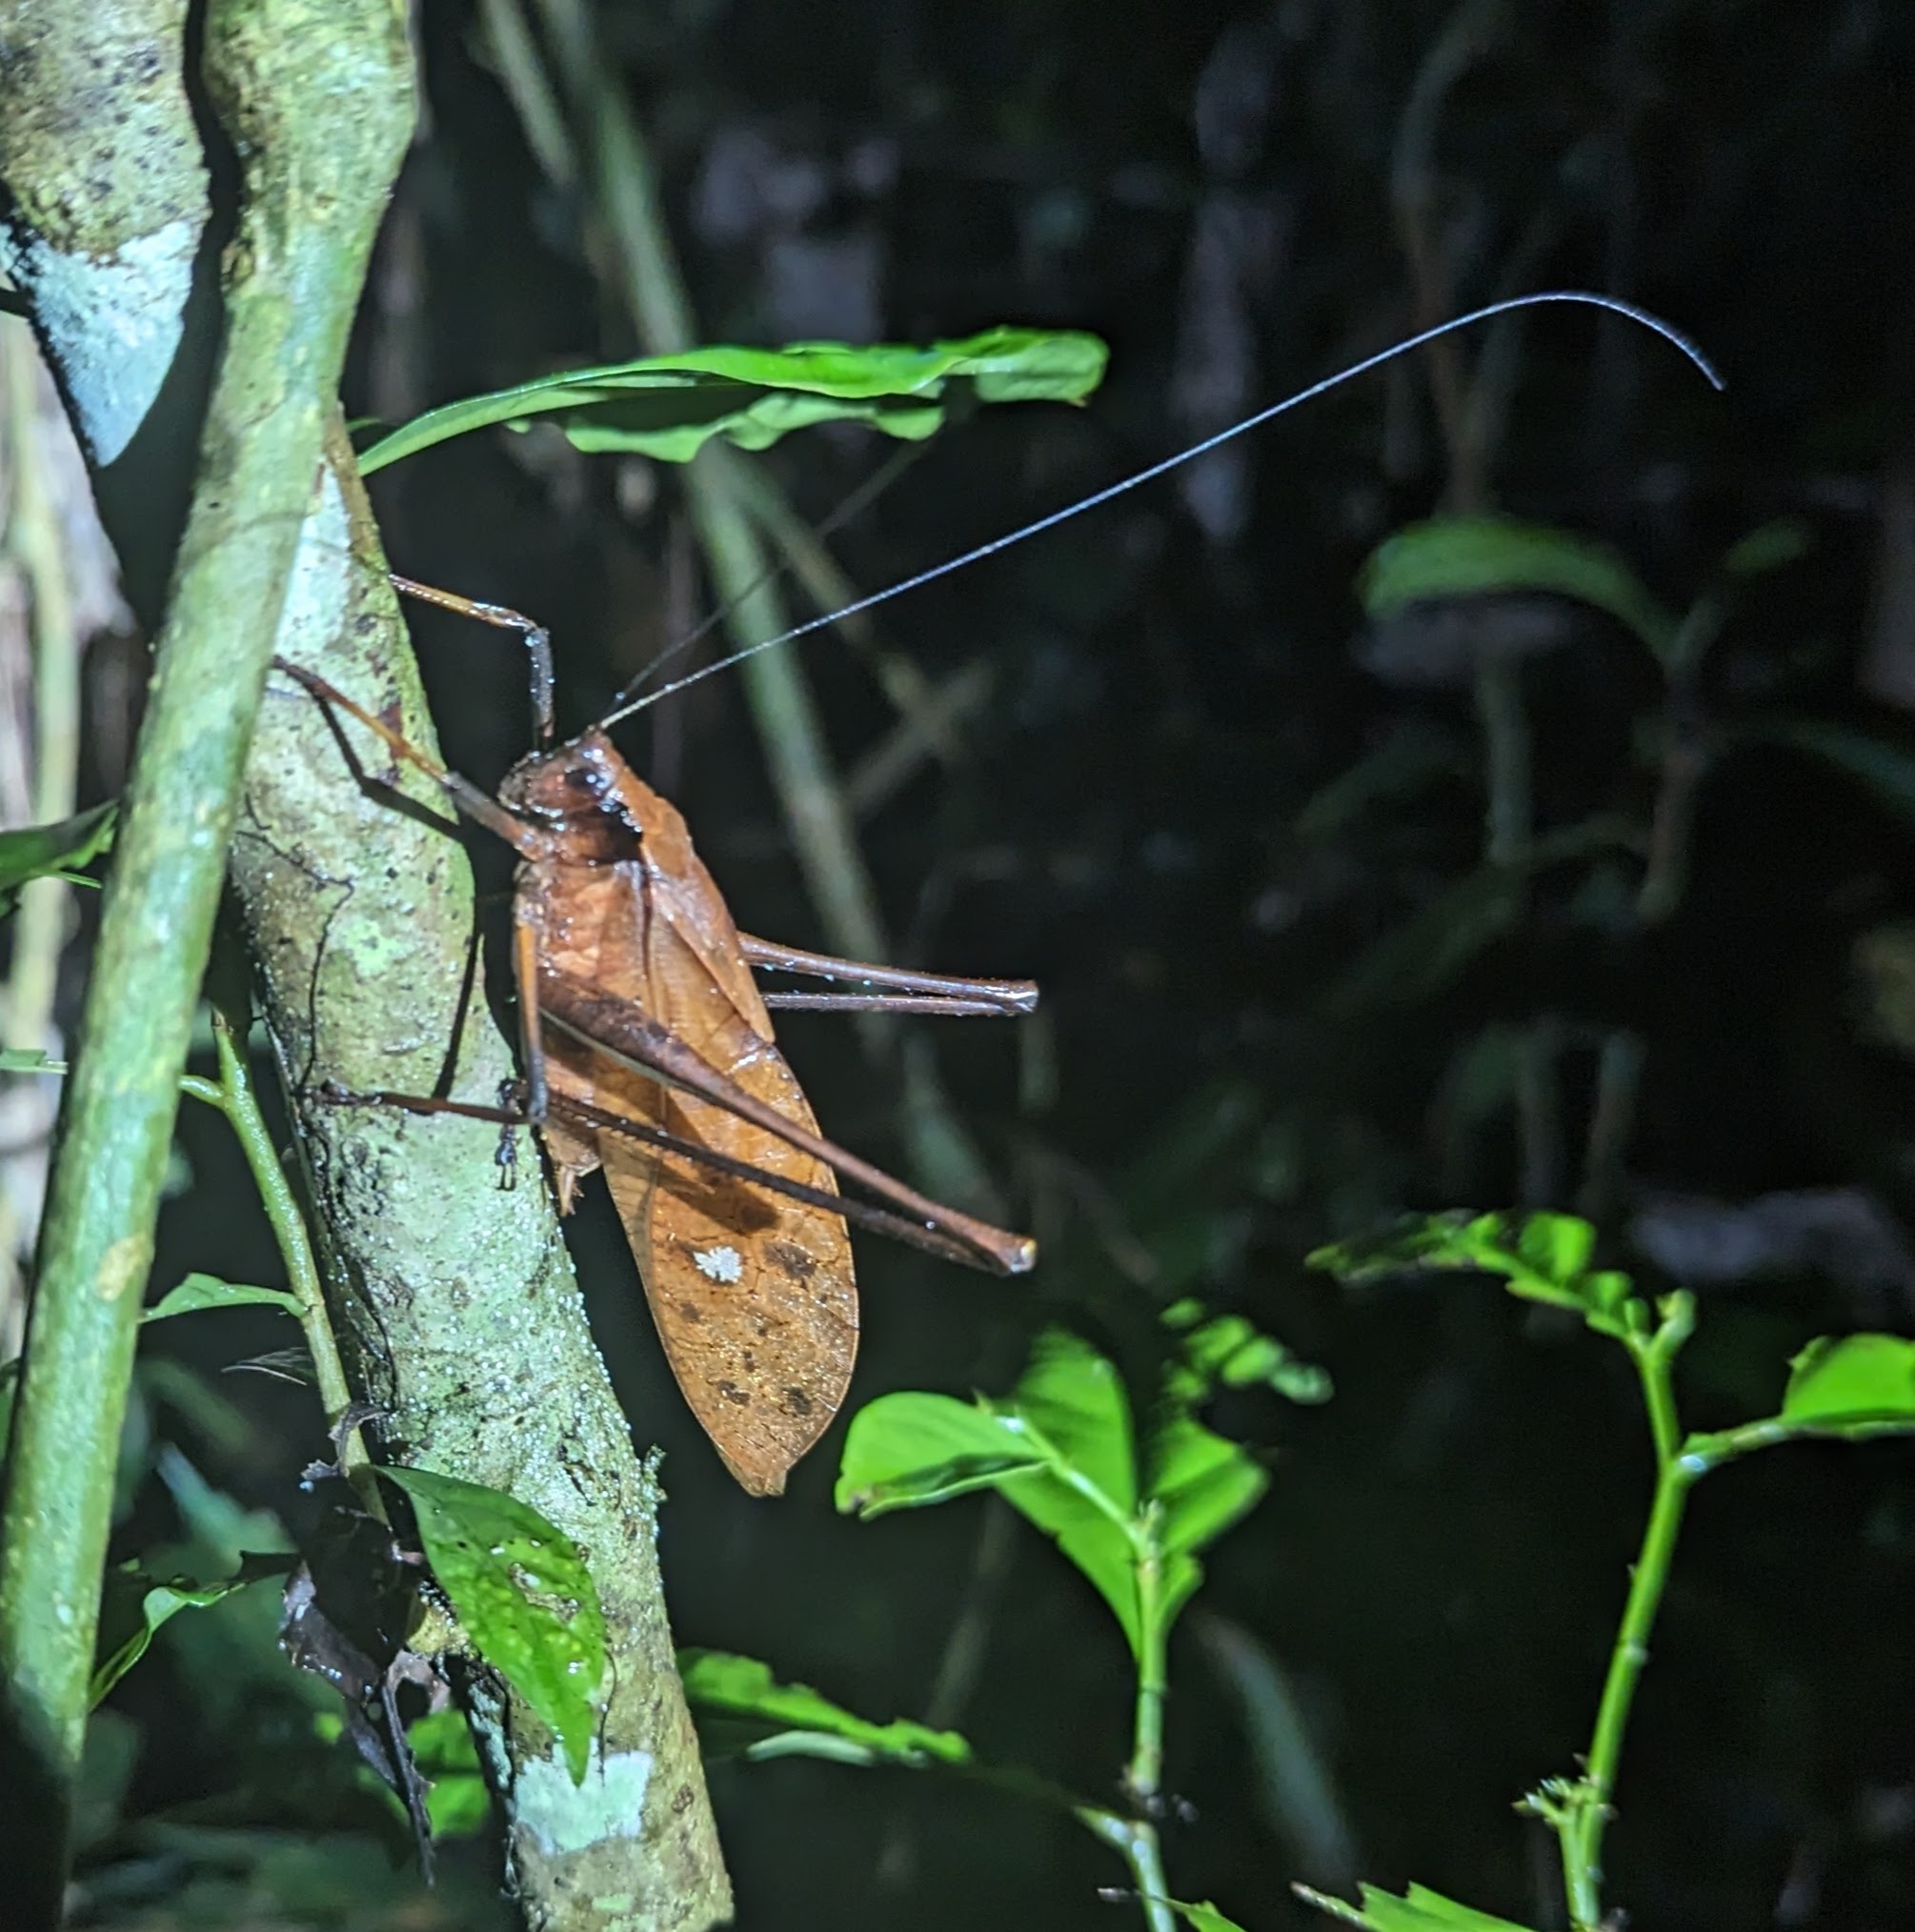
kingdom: Animalia
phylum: Arthropoda
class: Insecta
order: Orthoptera
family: Tettigoniidae
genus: Mecopoda
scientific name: Mecopoda elongata
